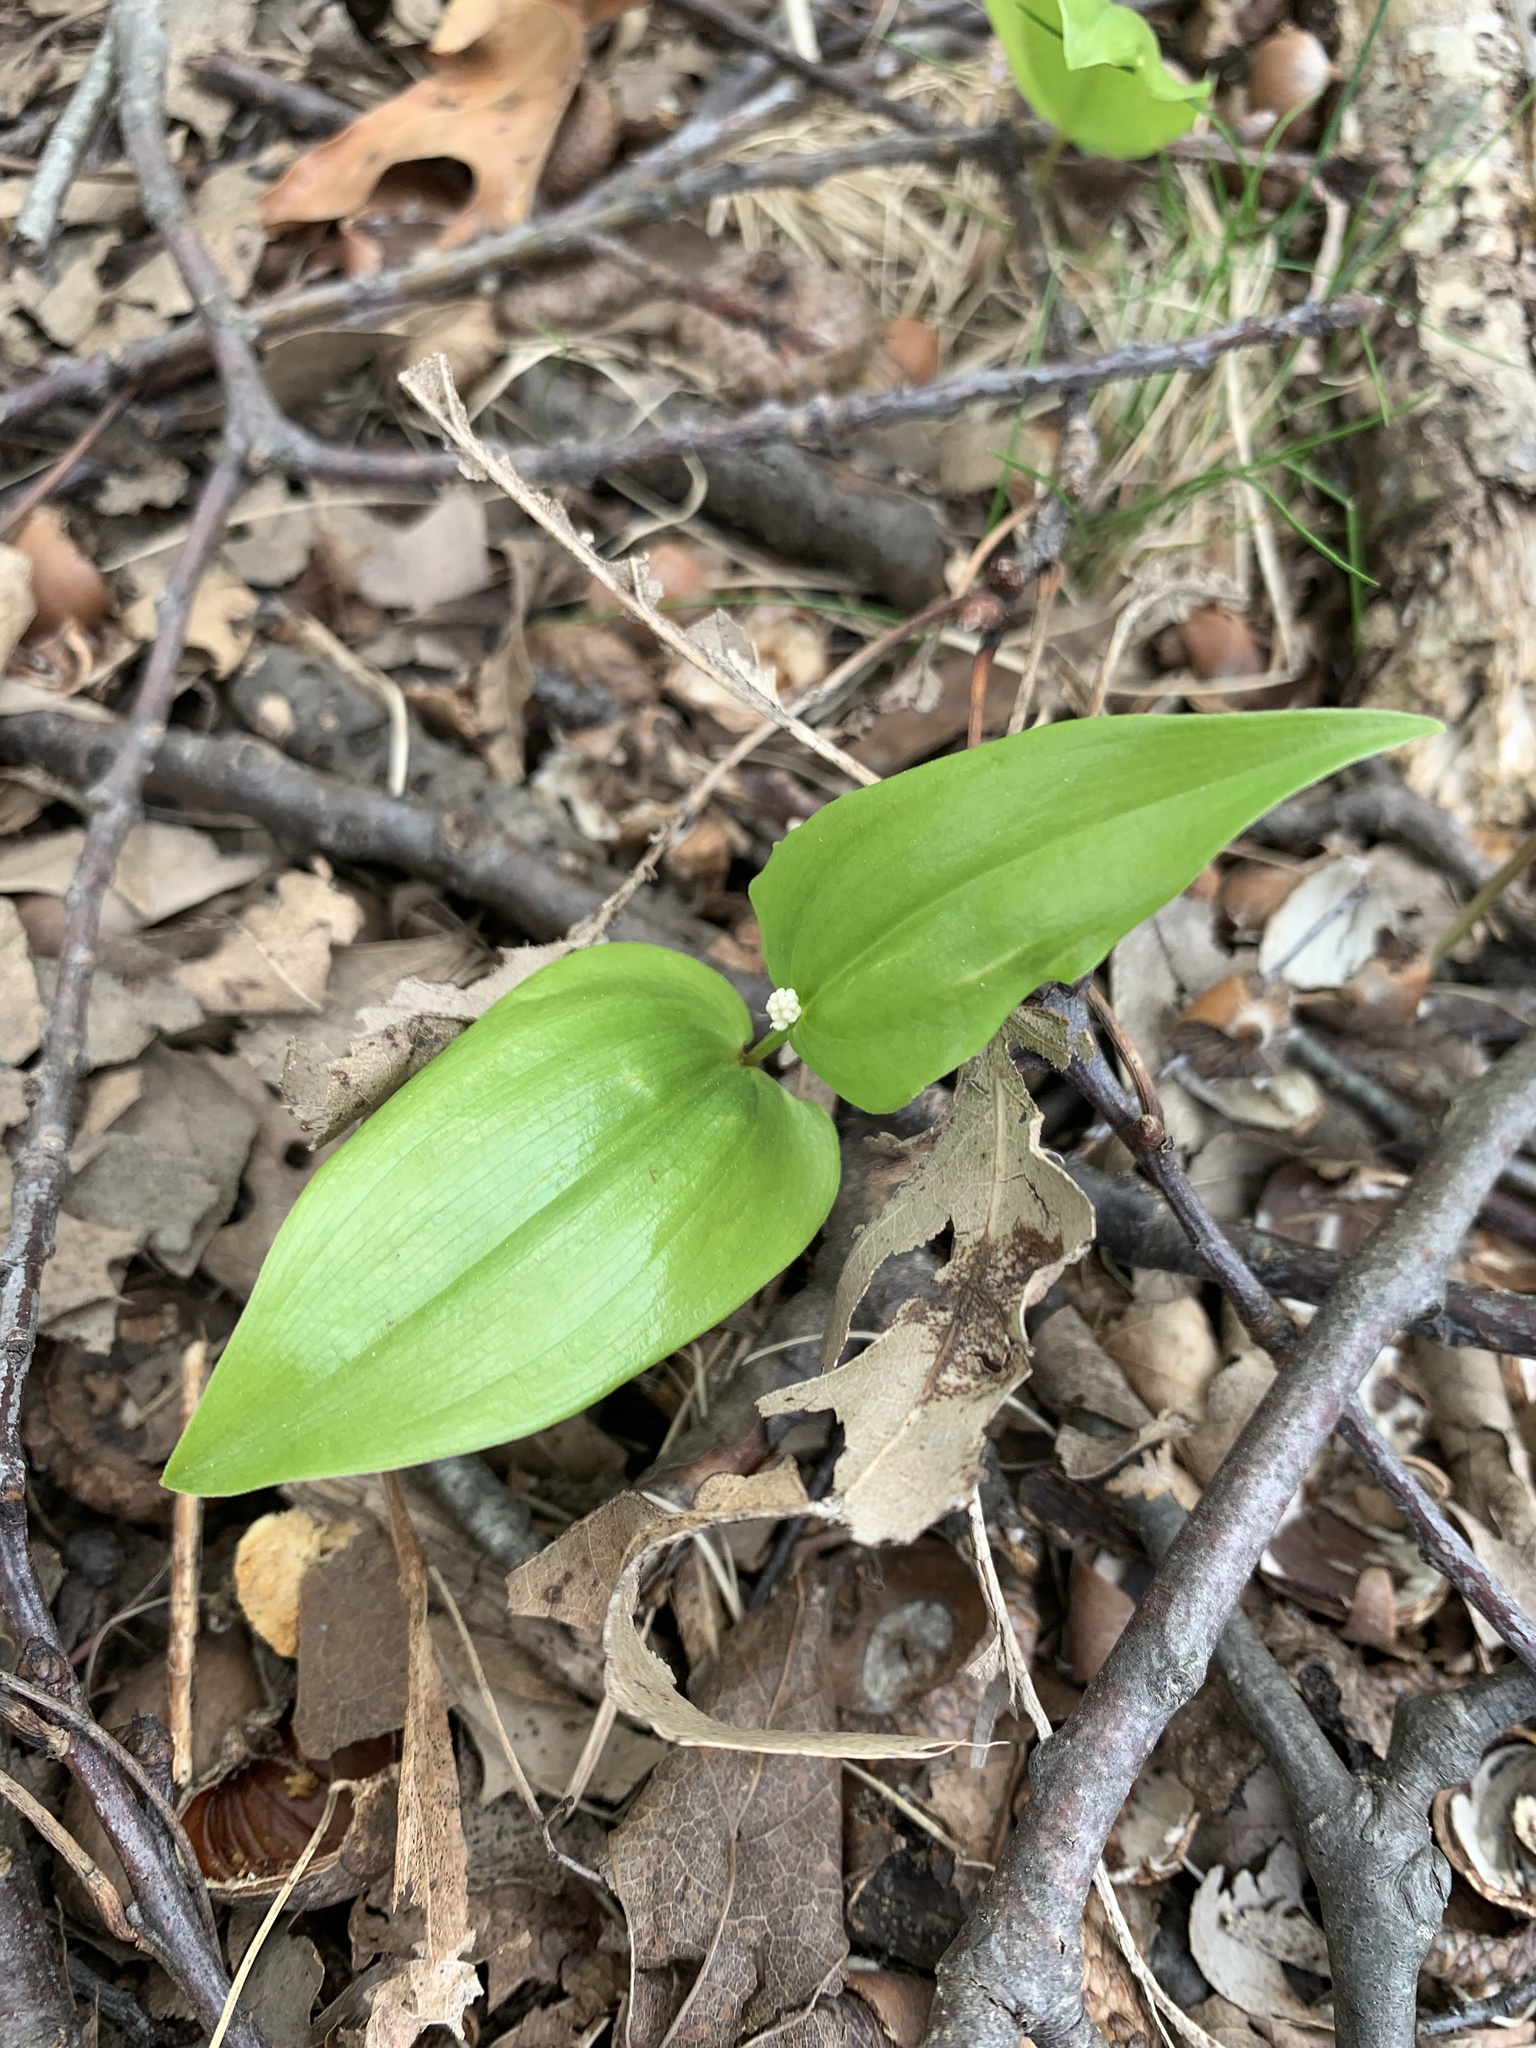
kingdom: Plantae
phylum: Tracheophyta
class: Liliopsida
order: Asparagales
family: Asparagaceae
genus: Maianthemum
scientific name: Maianthemum canadense
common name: False lily-of-the-valley
